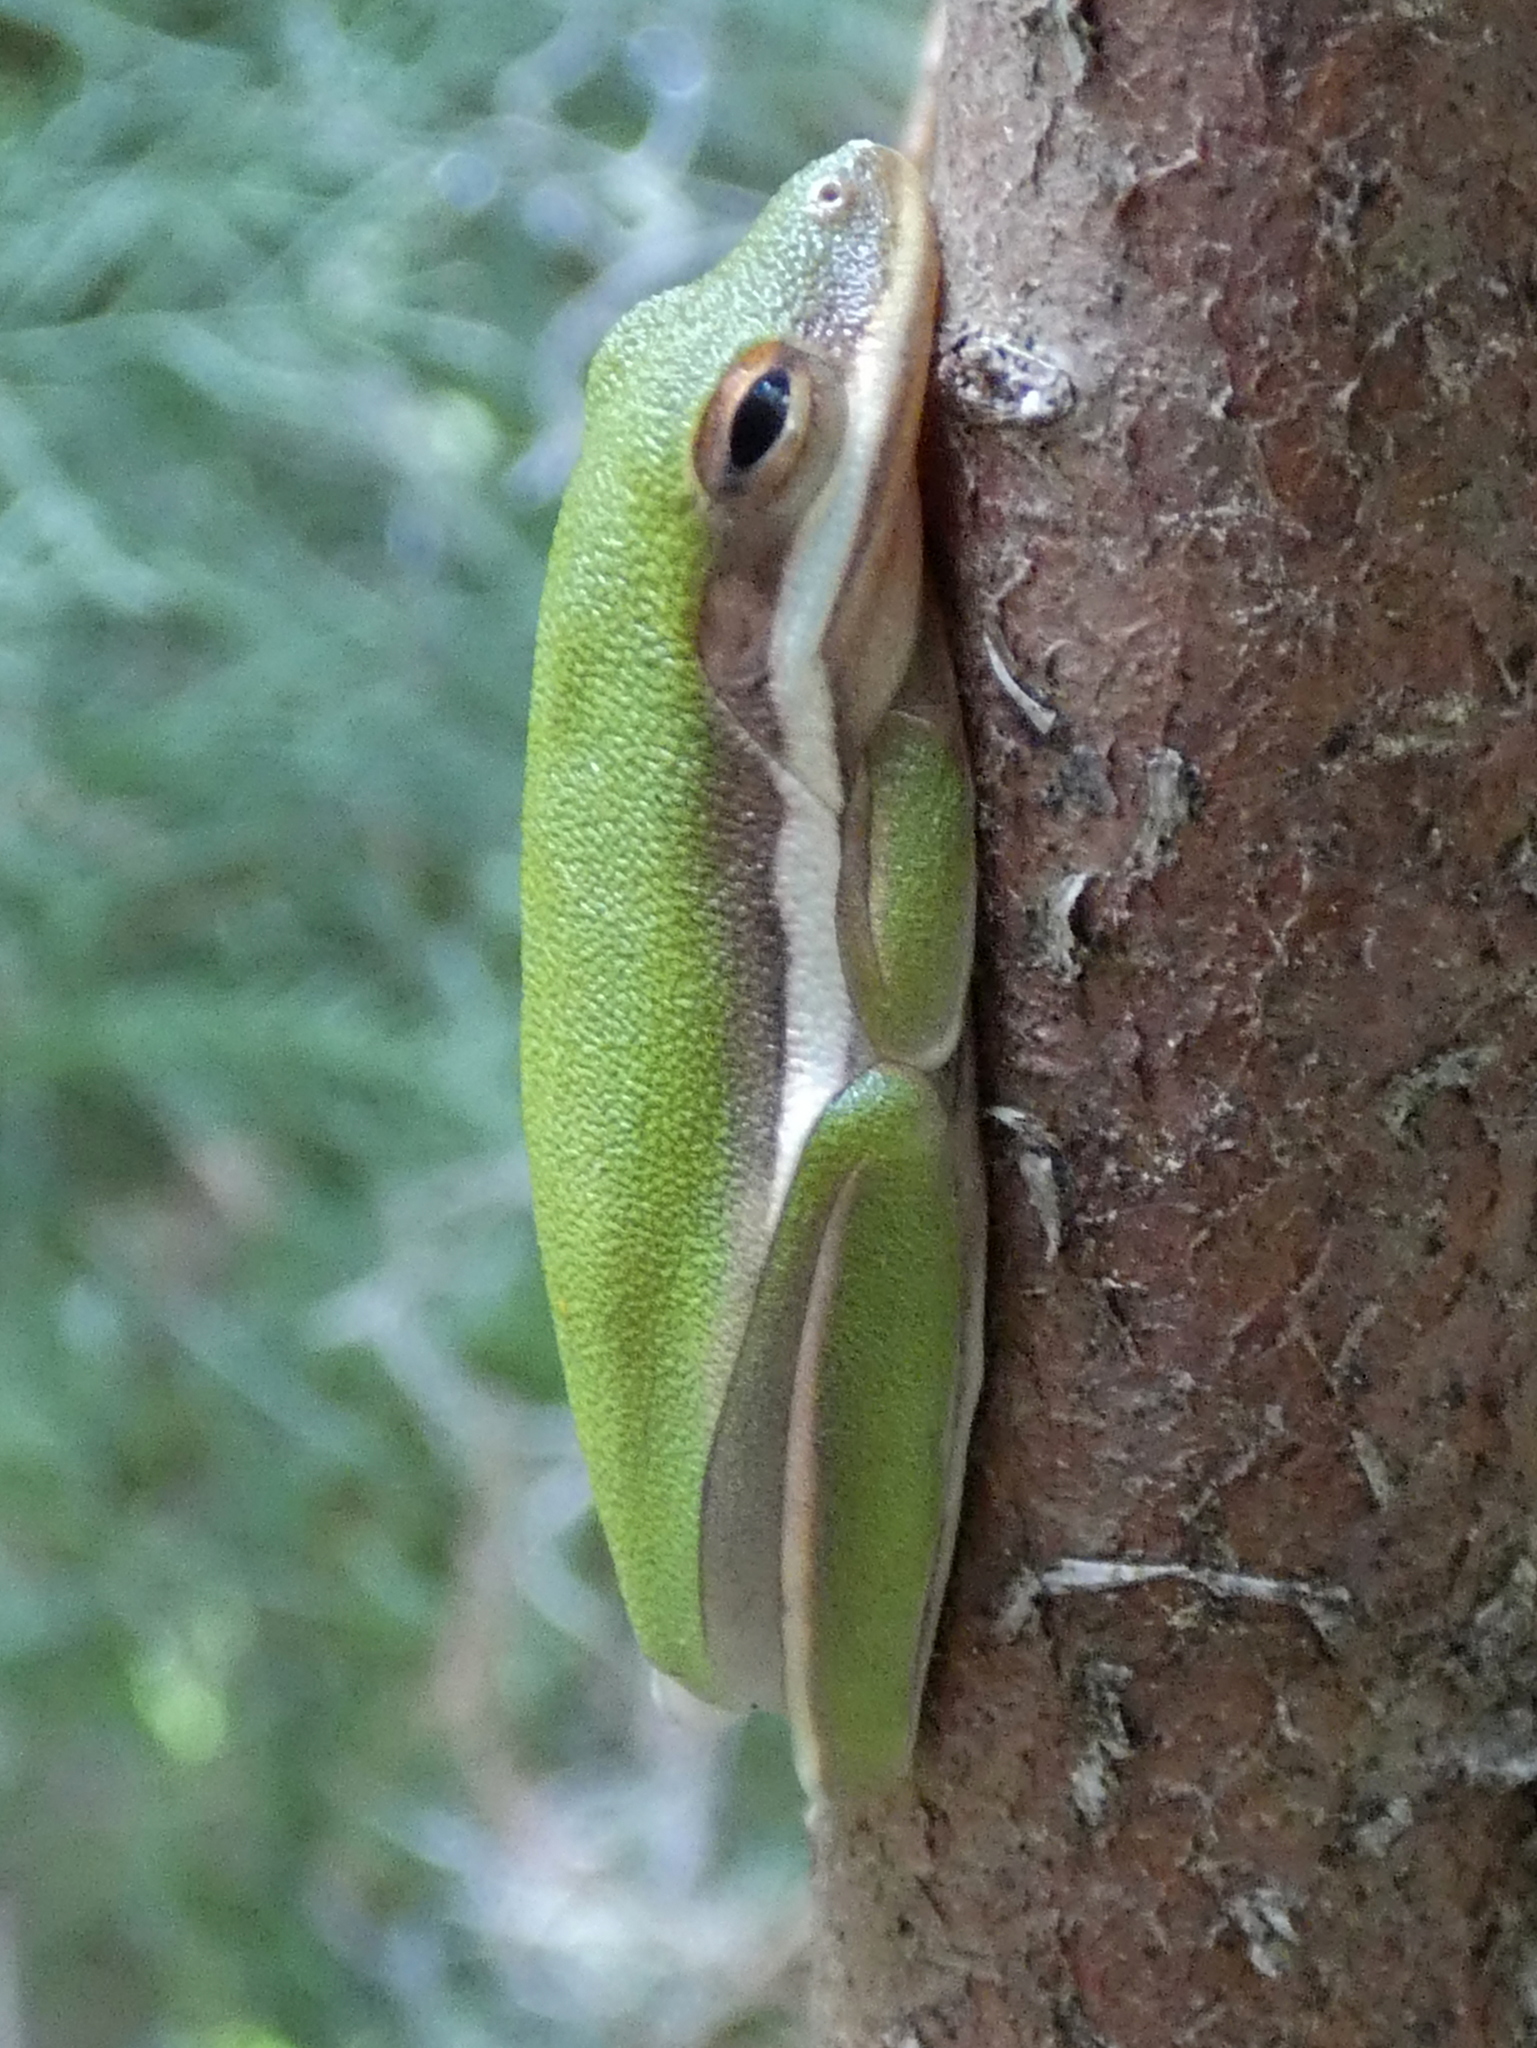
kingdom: Animalia
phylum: Chordata
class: Amphibia
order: Anura
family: Hylidae
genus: Dryophytes
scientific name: Dryophytes cinereus
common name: Green treefrog
